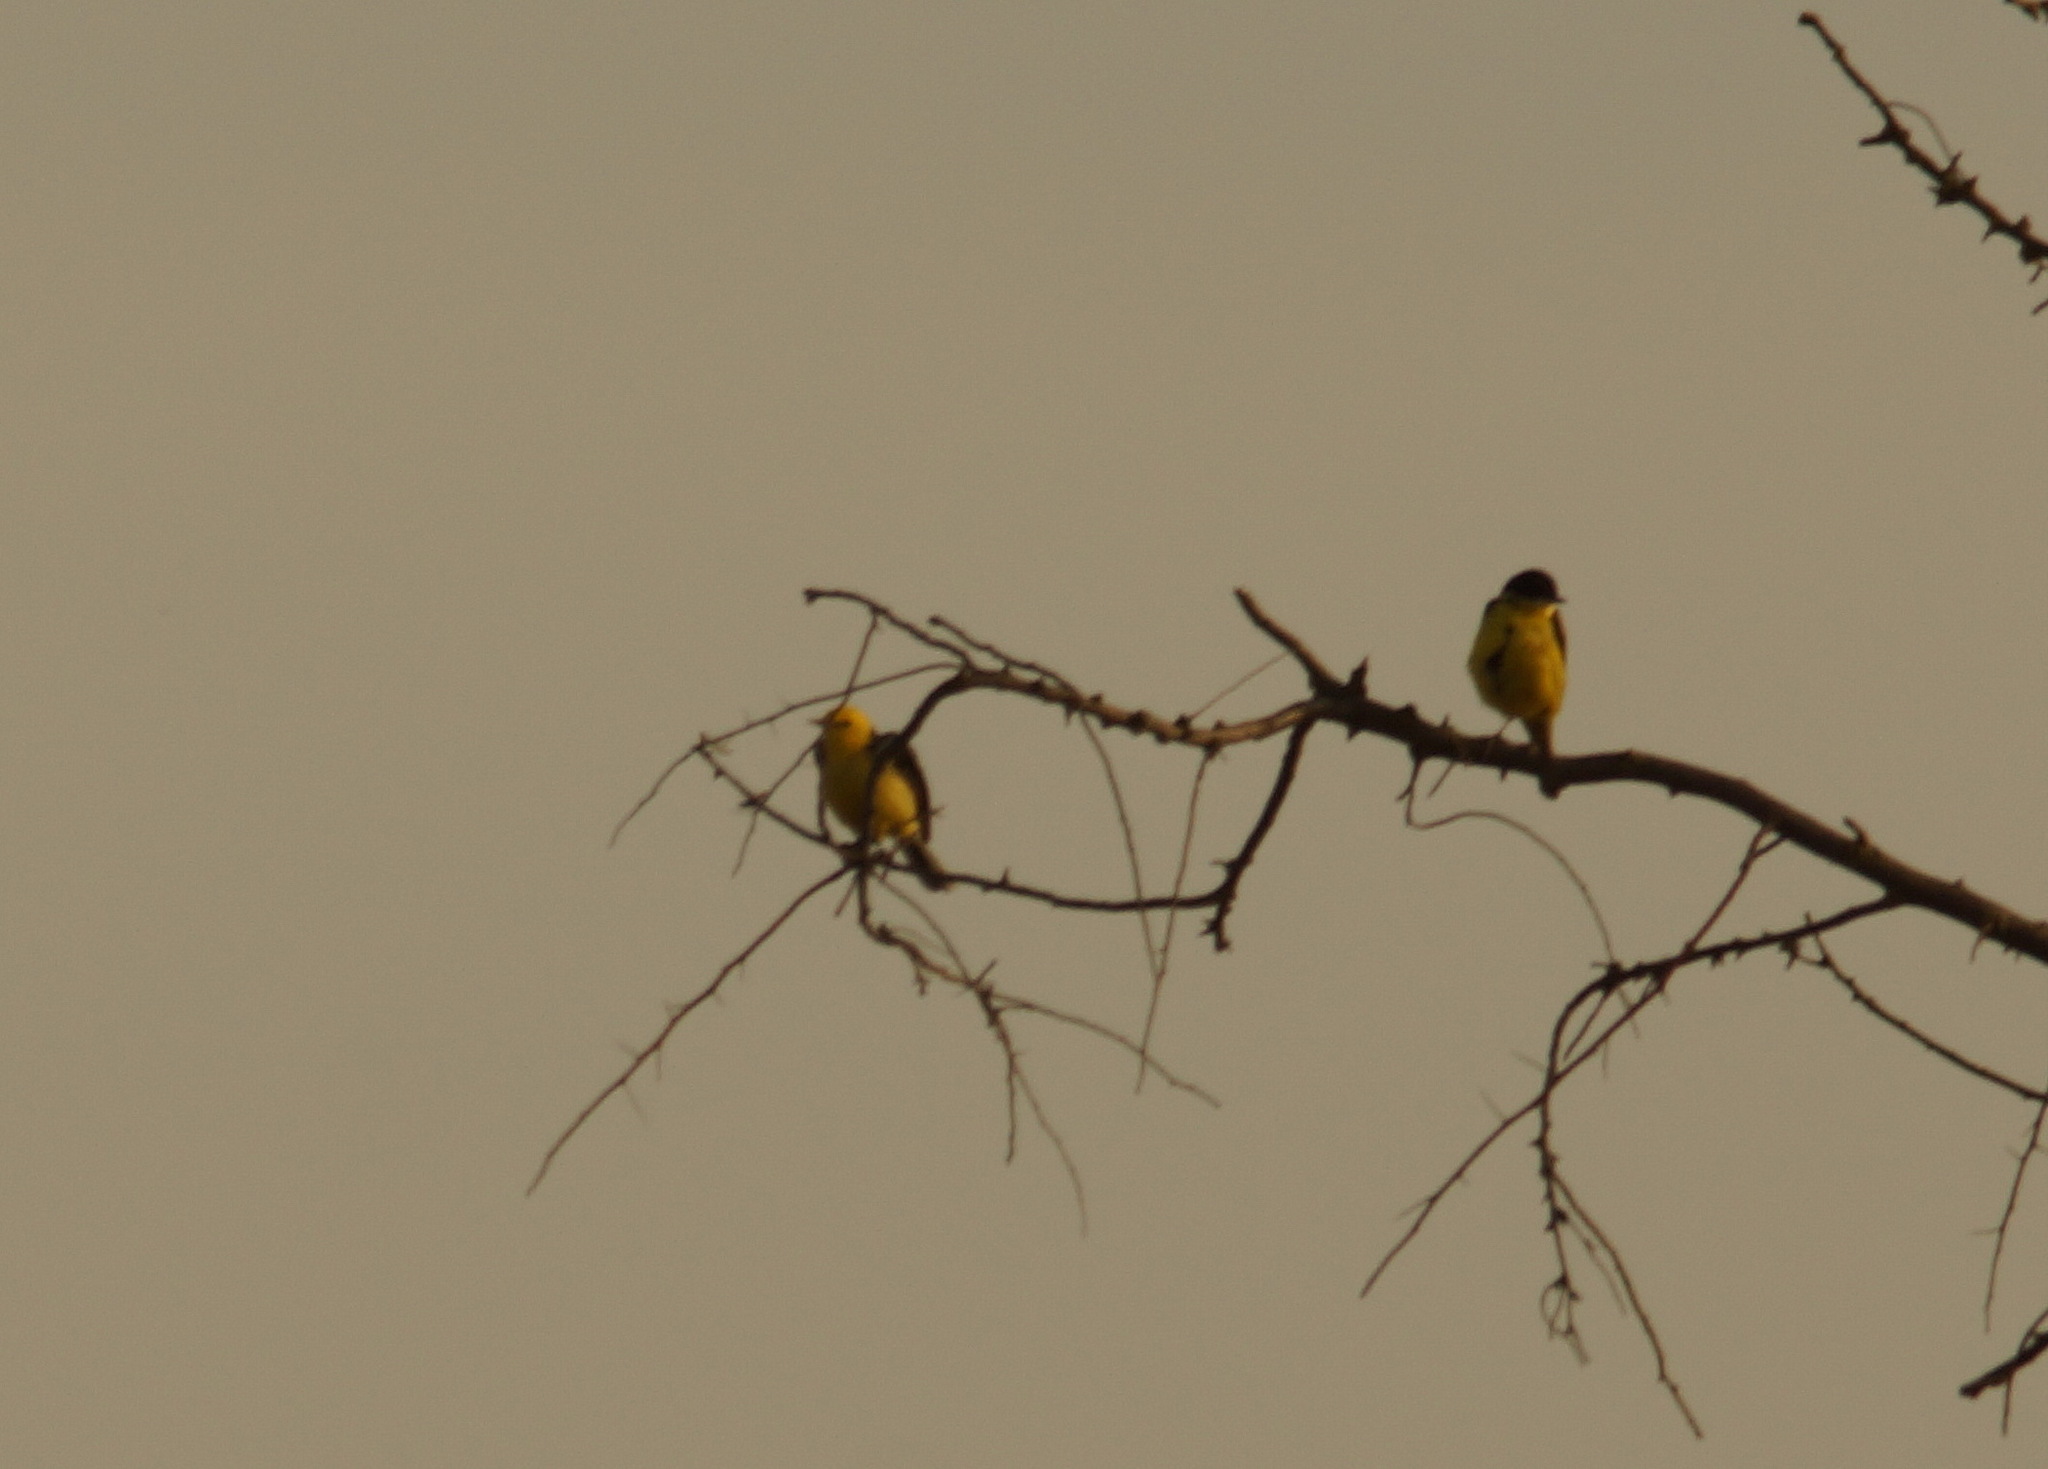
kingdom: Animalia
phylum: Chordata
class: Aves
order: Passeriformes
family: Motacillidae
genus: Motacilla
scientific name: Motacilla flava
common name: Western yellow wagtail
